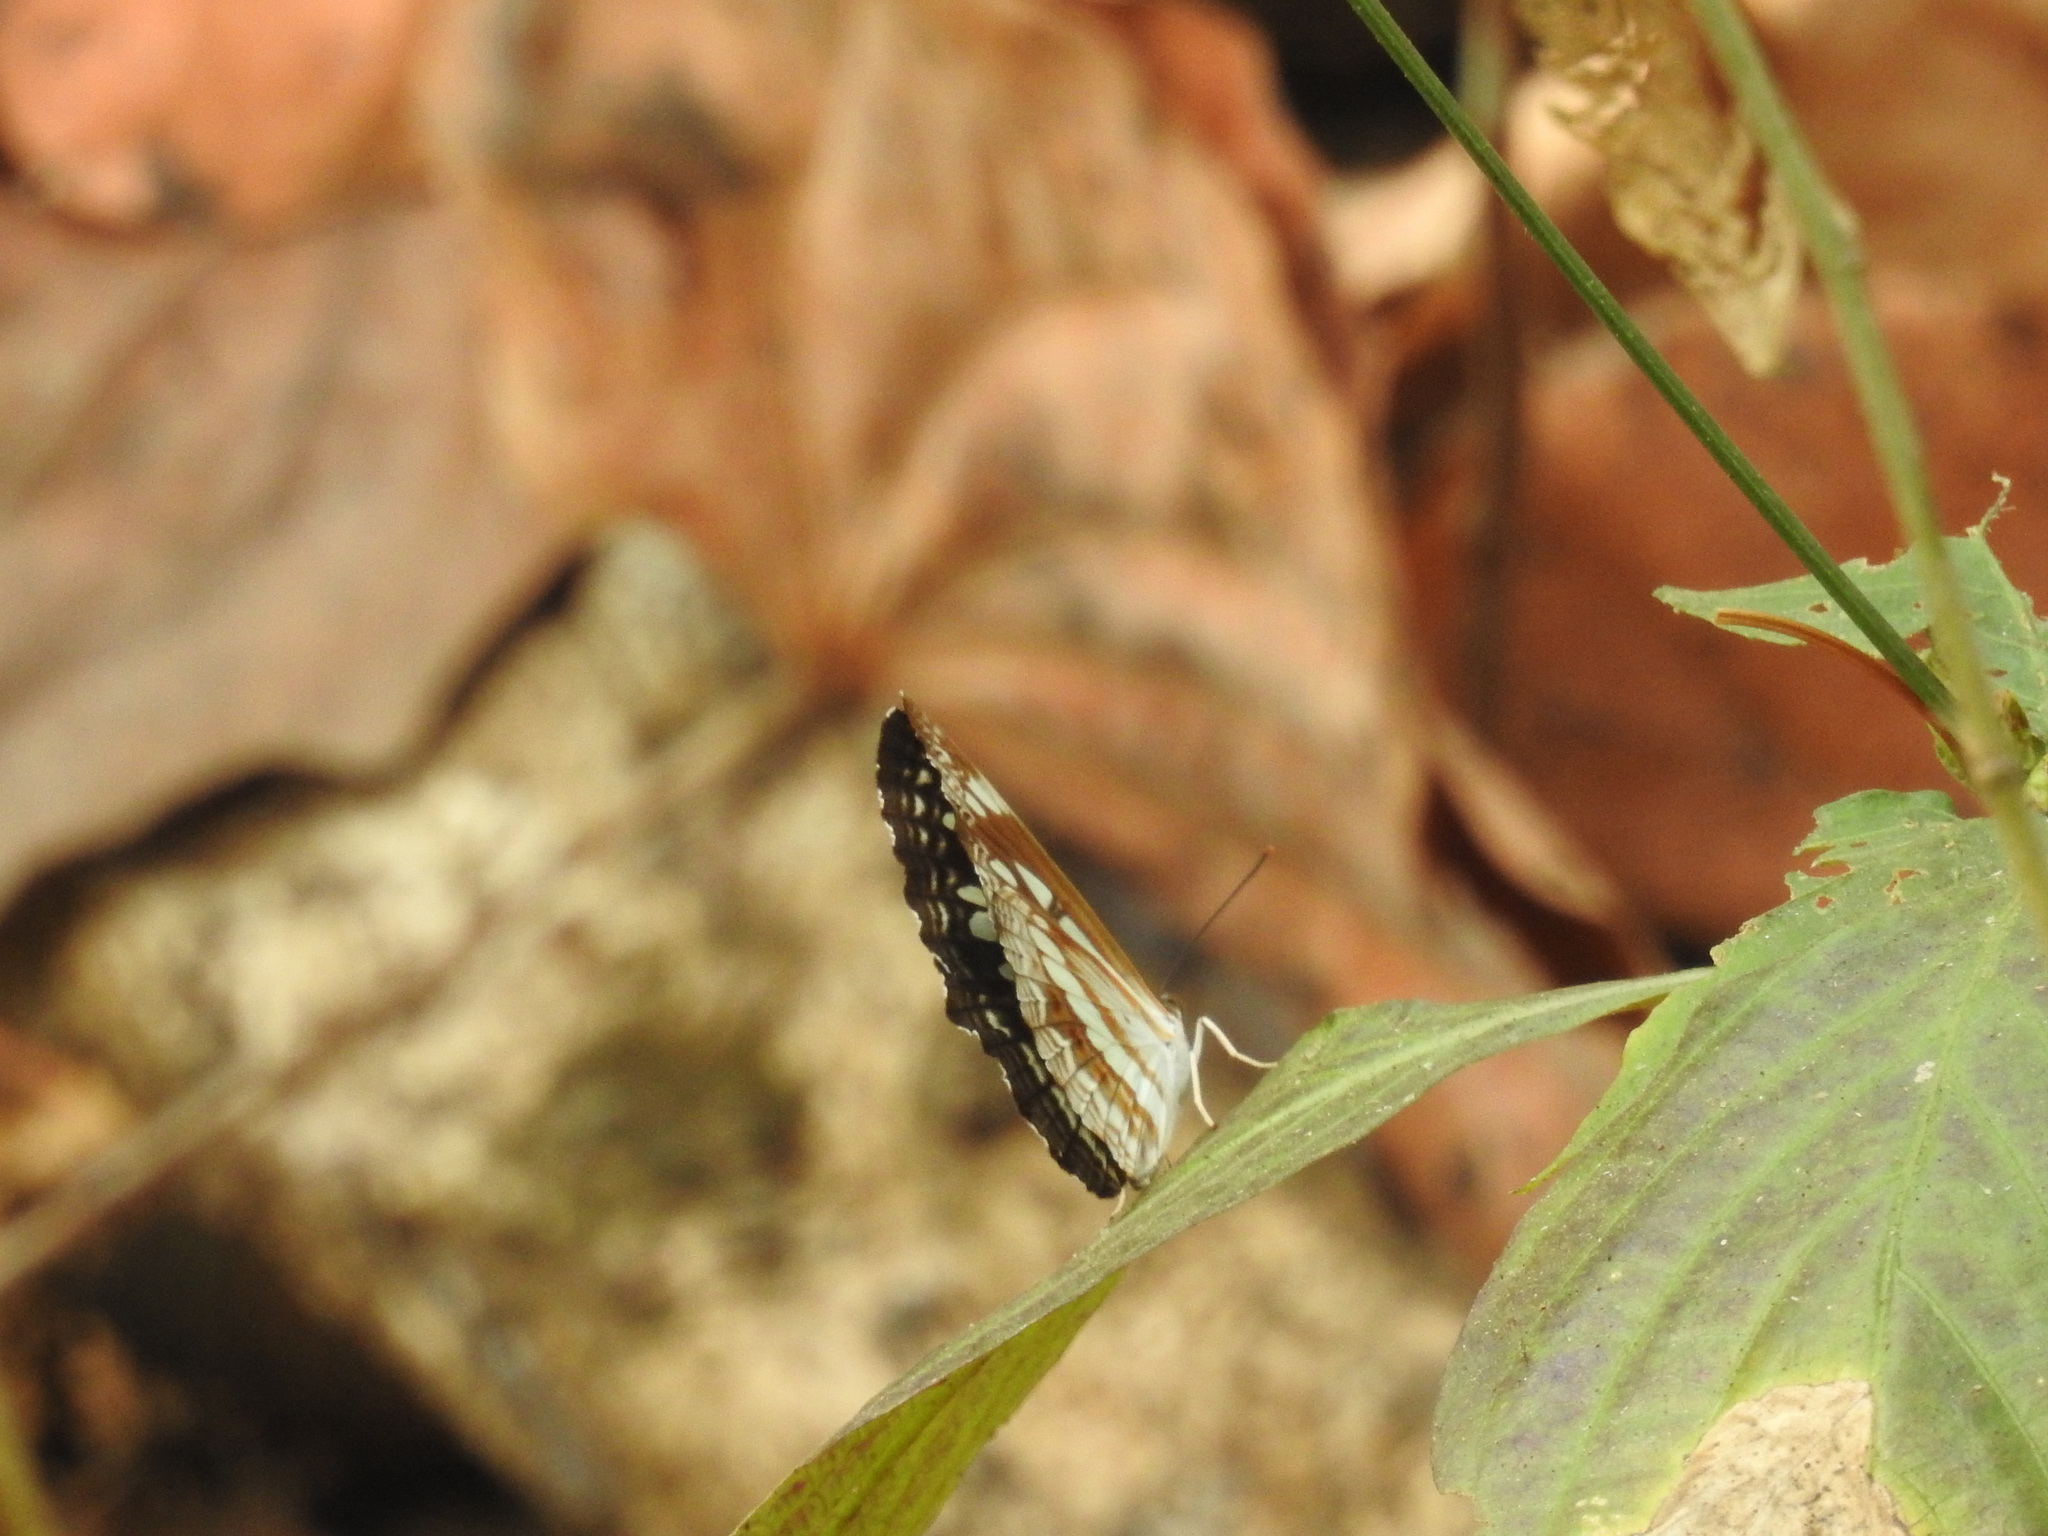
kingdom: Animalia
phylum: Arthropoda
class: Insecta
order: Lepidoptera
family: Nymphalidae
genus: Neptis
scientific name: Neptis jumbah
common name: Chestnut-streaked sailer
